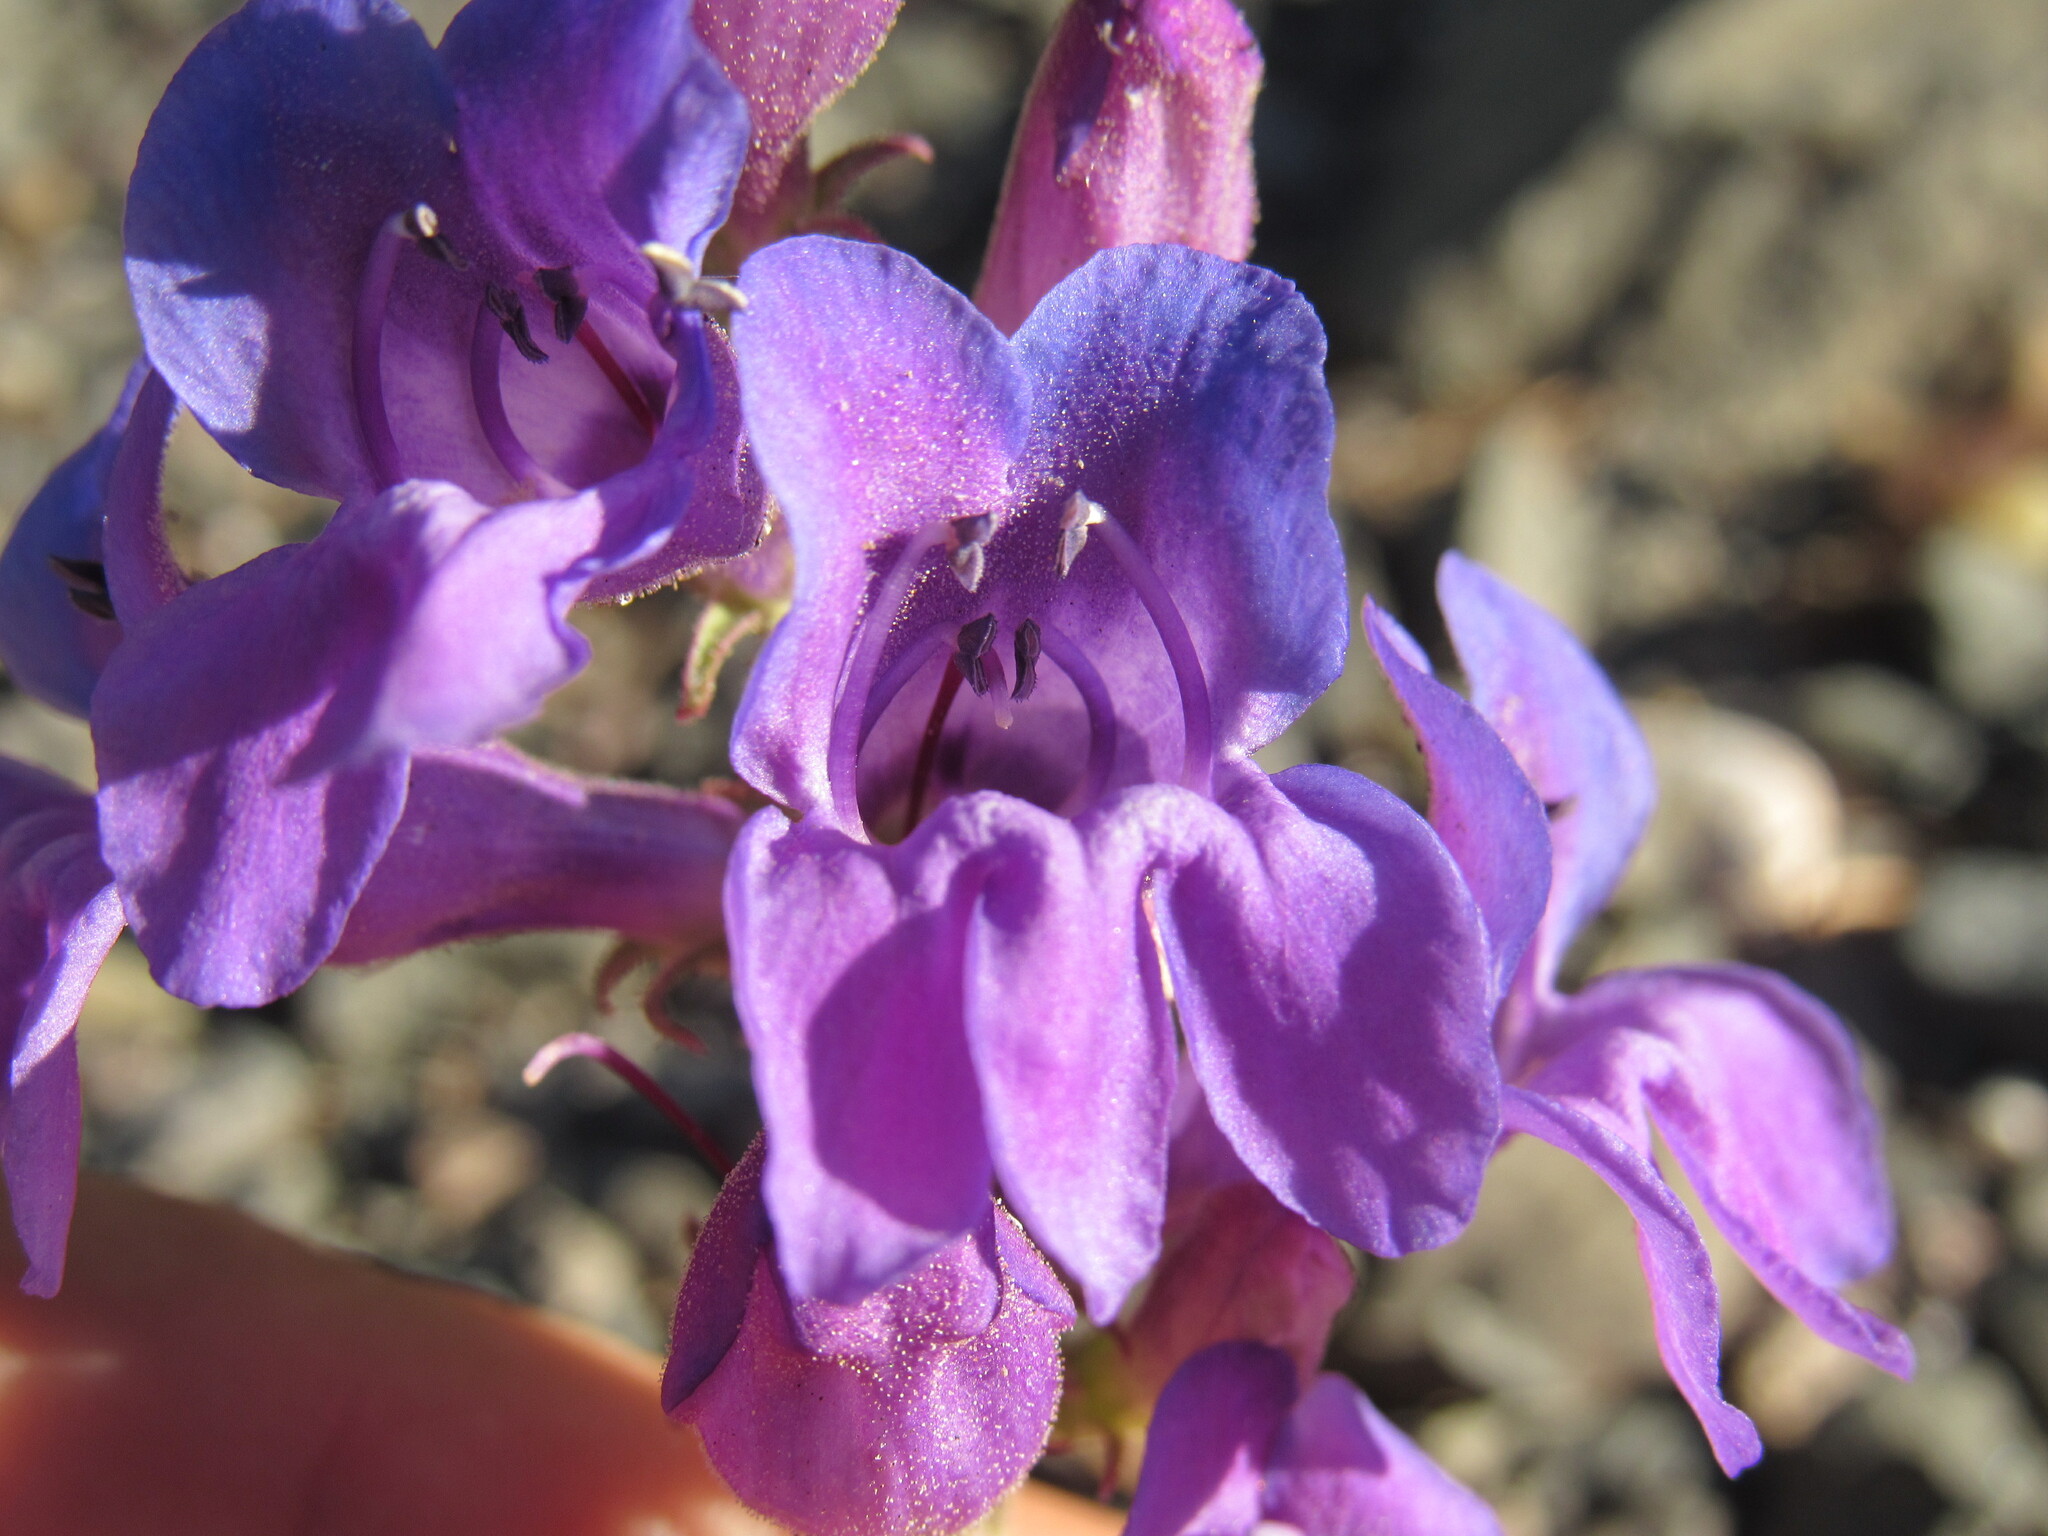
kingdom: Plantae
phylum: Tracheophyta
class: Magnoliopsida
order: Lamiales
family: Plantaginaceae
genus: Penstemon
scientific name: Penstemon leiophyllus
